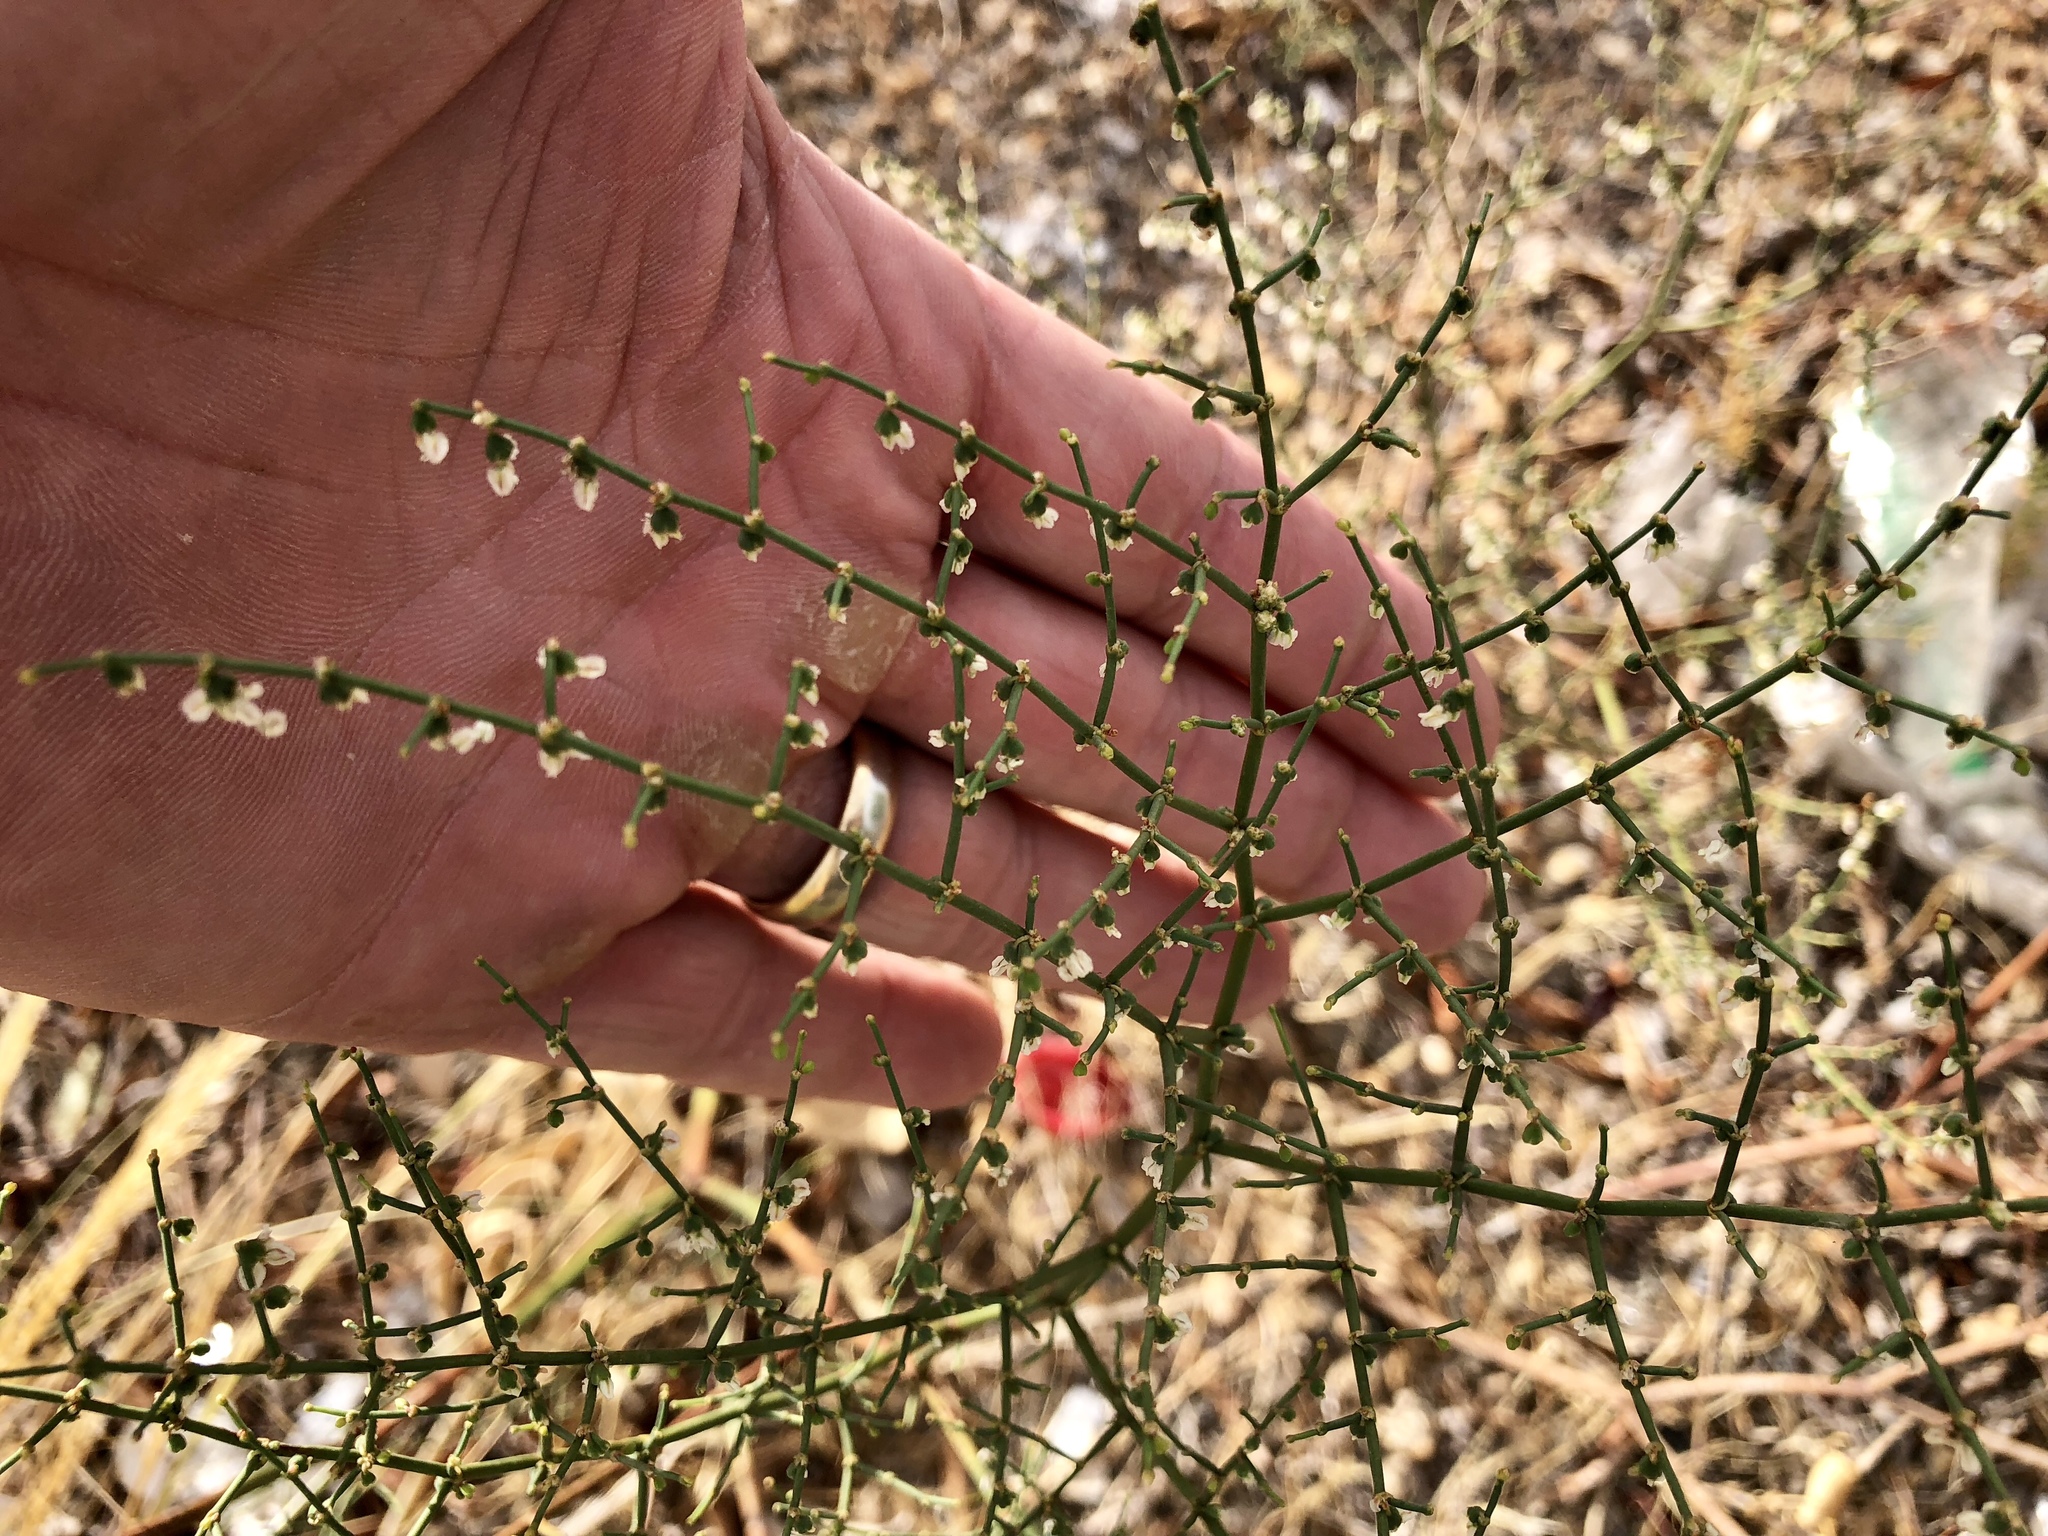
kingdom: Plantae
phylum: Tracheophyta
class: Magnoliopsida
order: Caryophyllales
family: Polygonaceae
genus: Eriogonum
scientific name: Eriogonum deflexum
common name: Skeleton-weed
